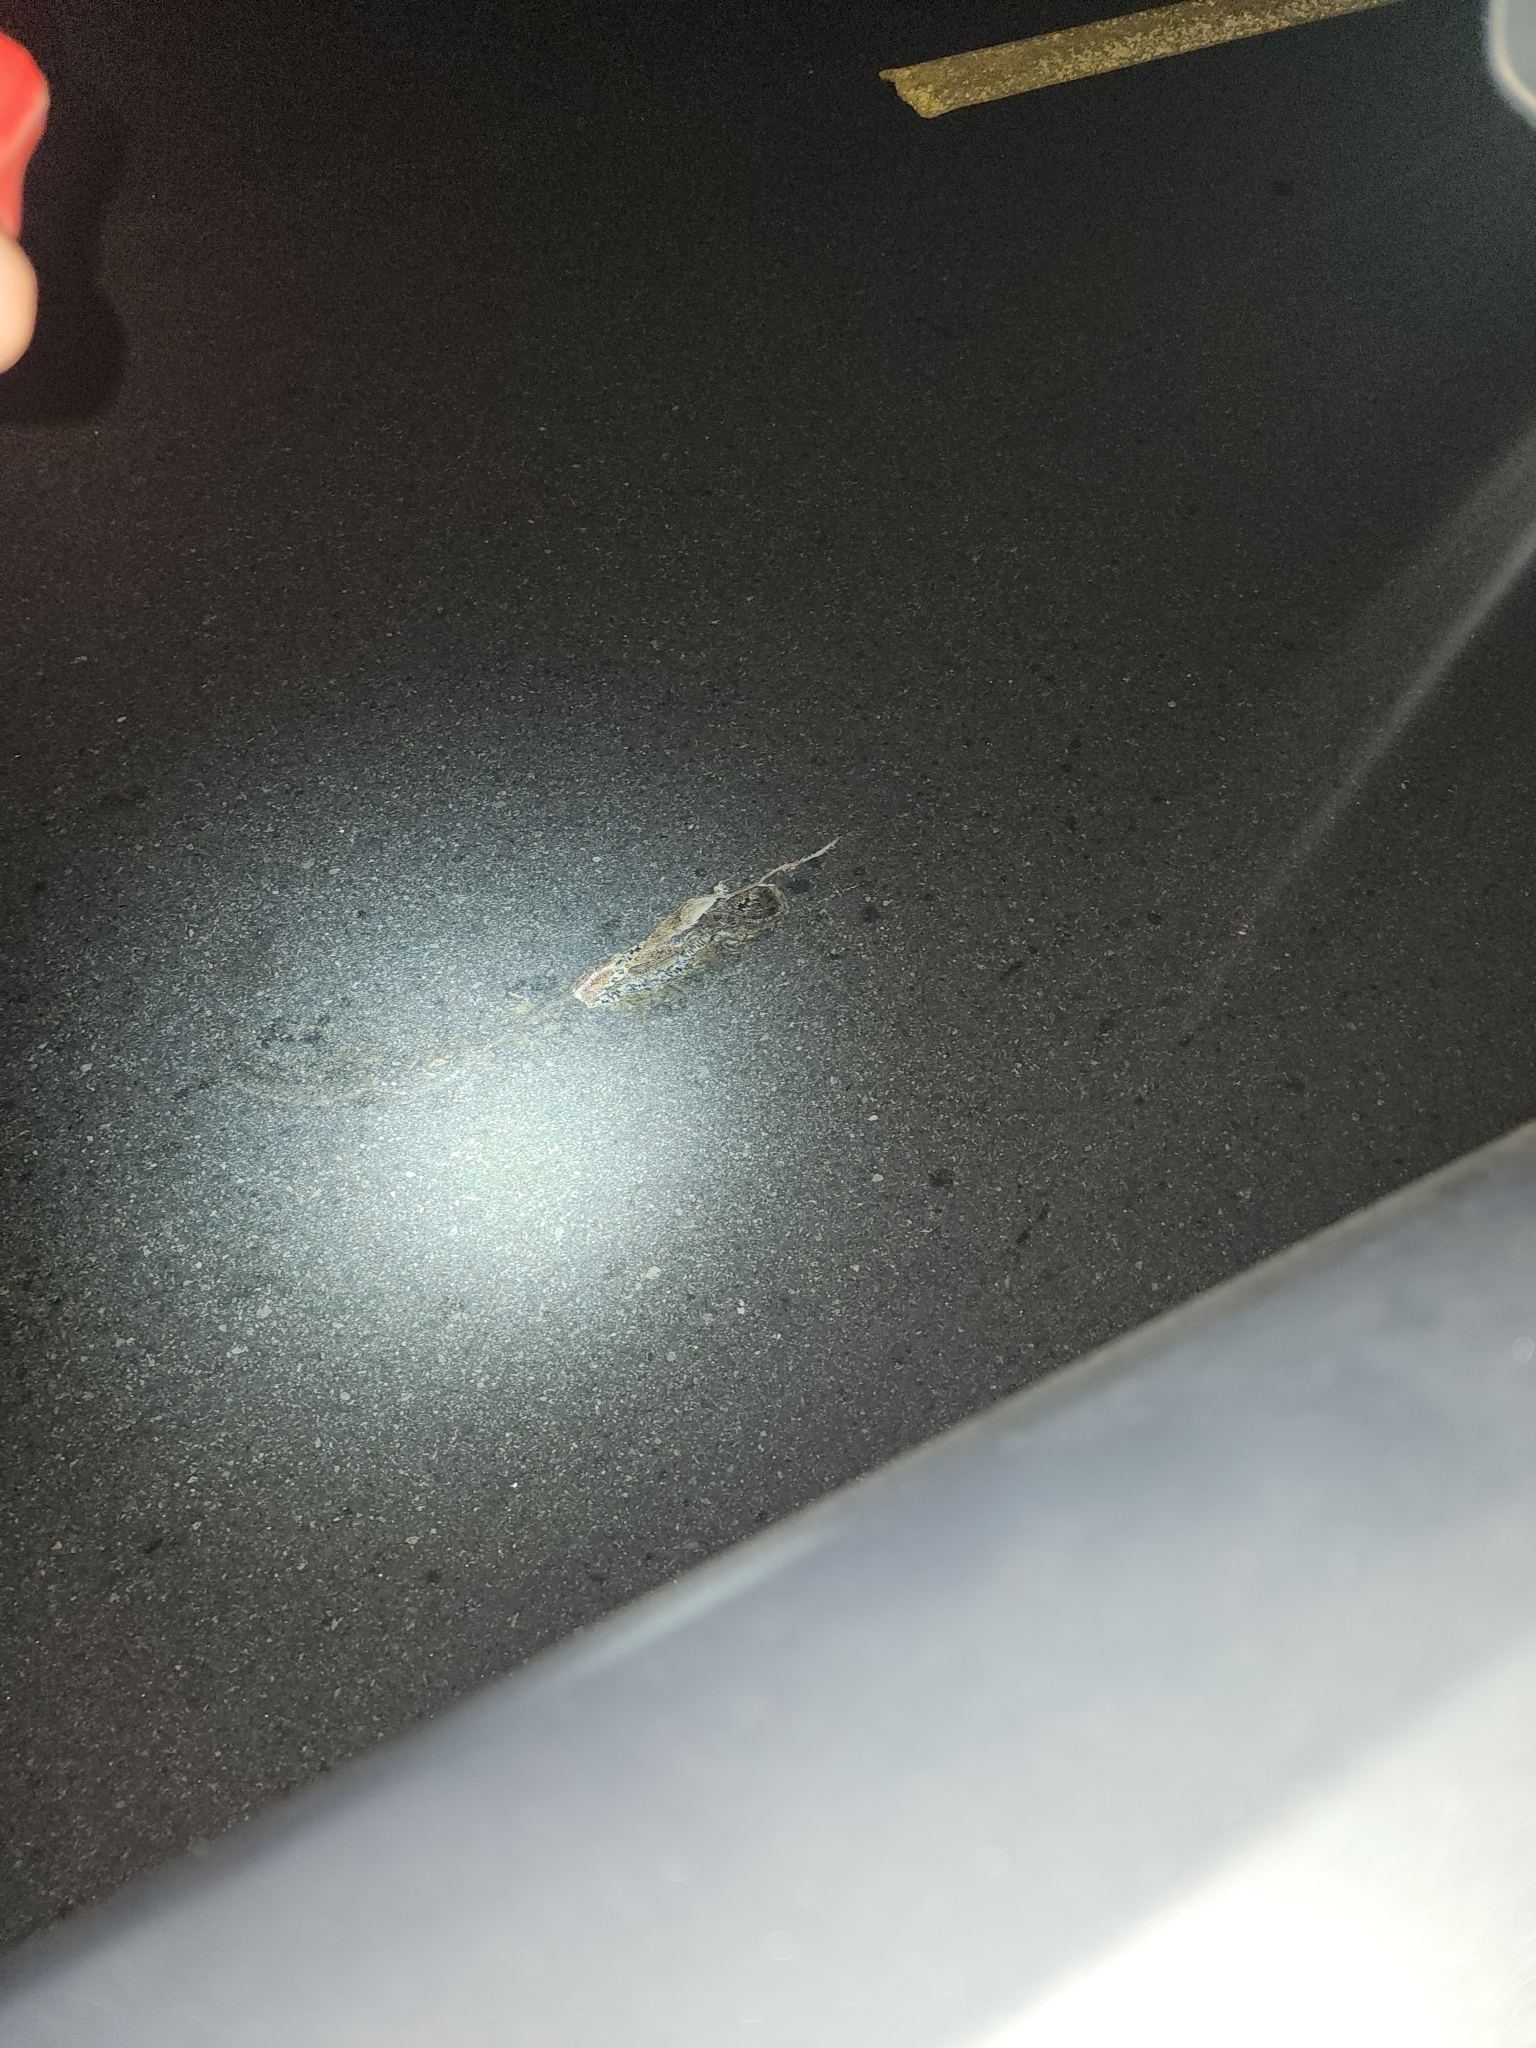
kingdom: Animalia
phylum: Chordata
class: Squamata
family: Colubridae
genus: Pantherophis
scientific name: Pantherophis guttatus
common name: Red cornsnake
